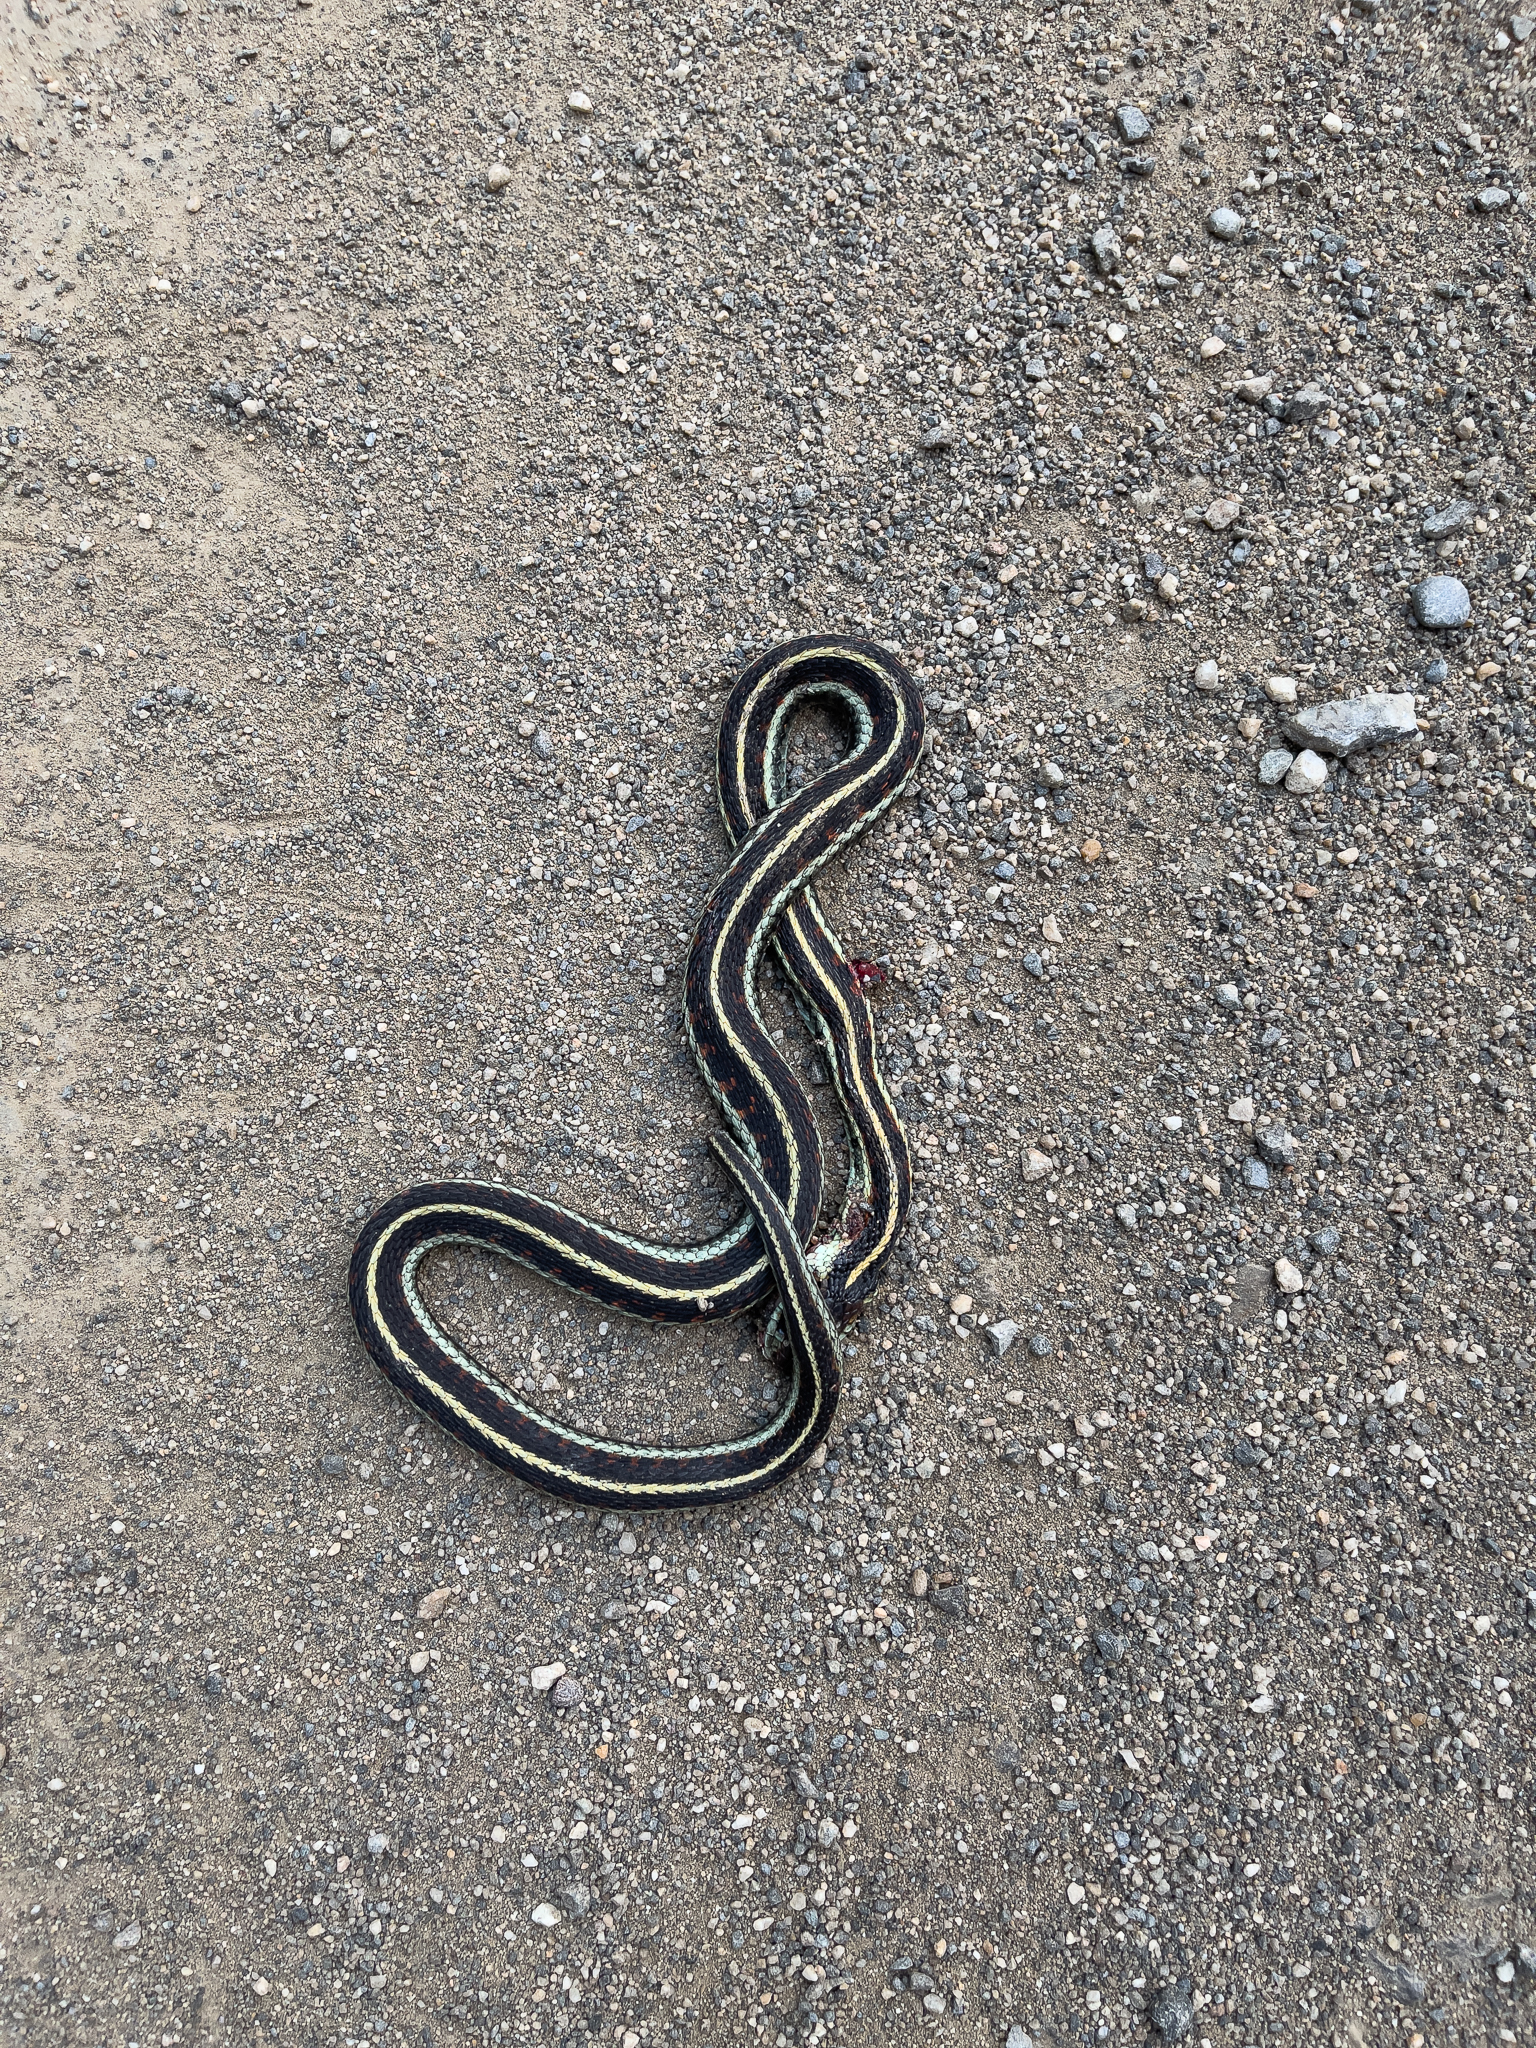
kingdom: Animalia
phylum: Chordata
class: Squamata
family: Colubridae
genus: Thamnophis
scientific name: Thamnophis sirtalis
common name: Common garter snake
